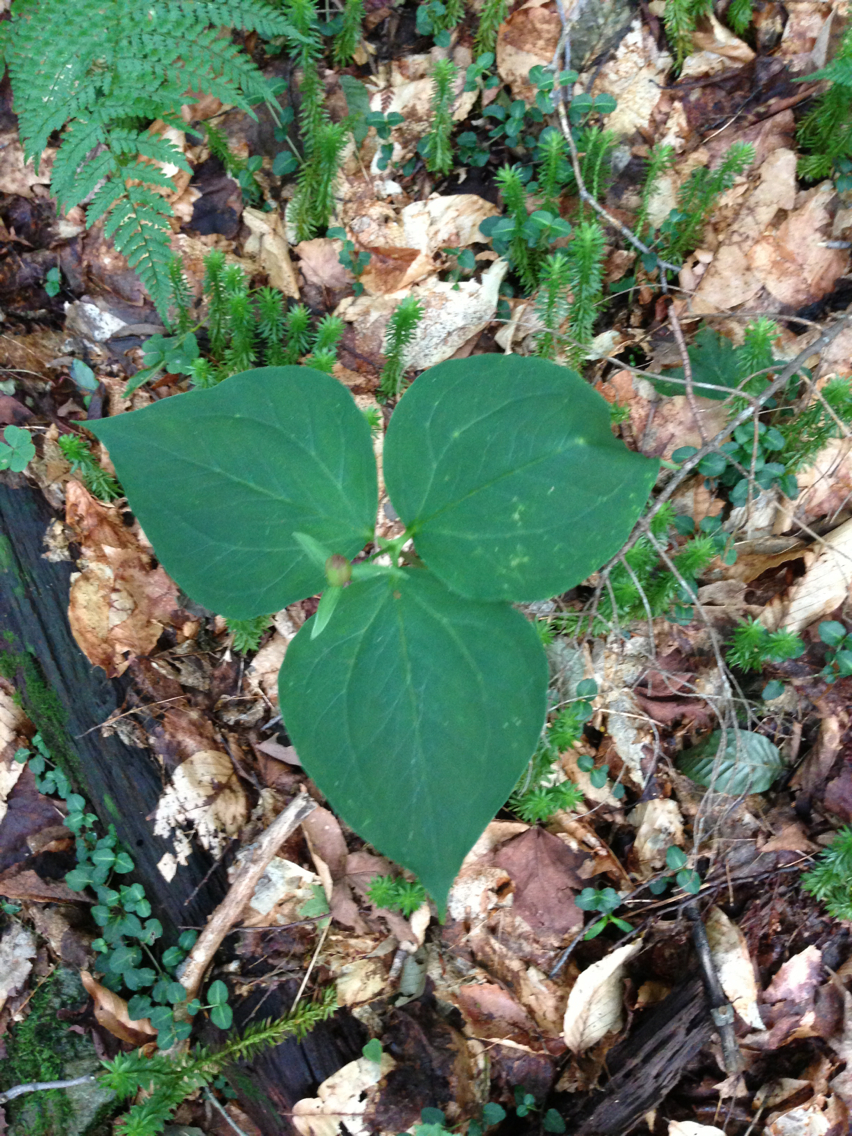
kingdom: Plantae
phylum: Tracheophyta
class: Liliopsida
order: Liliales
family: Melanthiaceae
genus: Trillium
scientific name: Trillium undulatum
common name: Paint trillium
